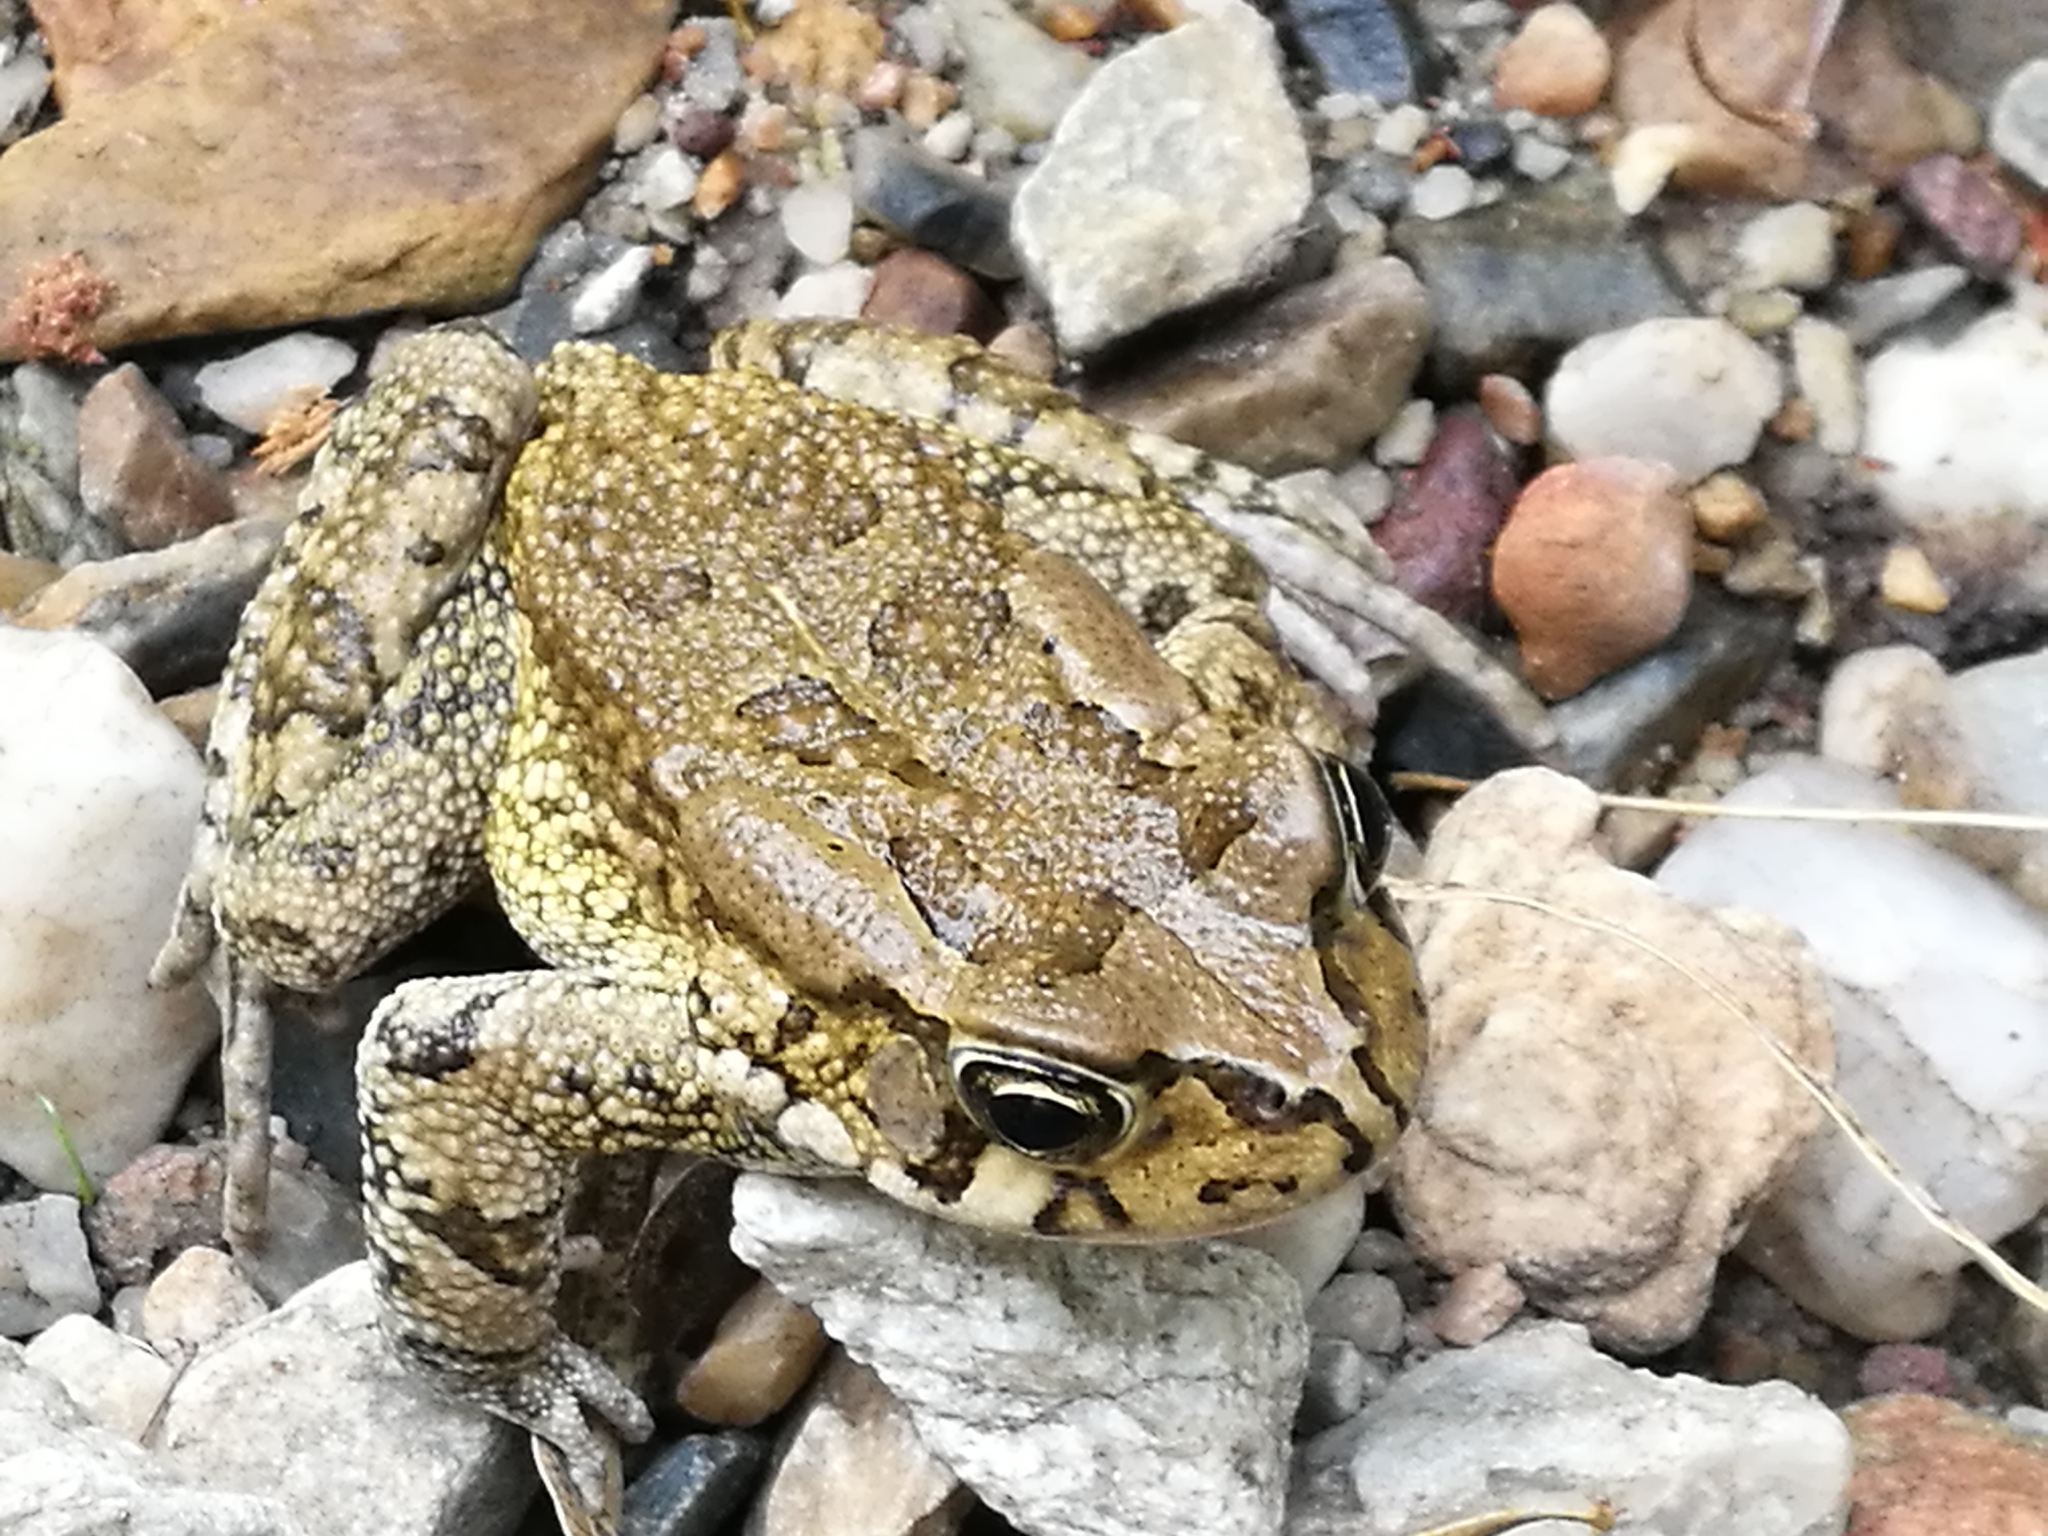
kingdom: Animalia
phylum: Chordata
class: Amphibia
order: Anura
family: Bufonidae
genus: Sclerophrys
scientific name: Sclerophrys capensis
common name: Ranger’s toad
